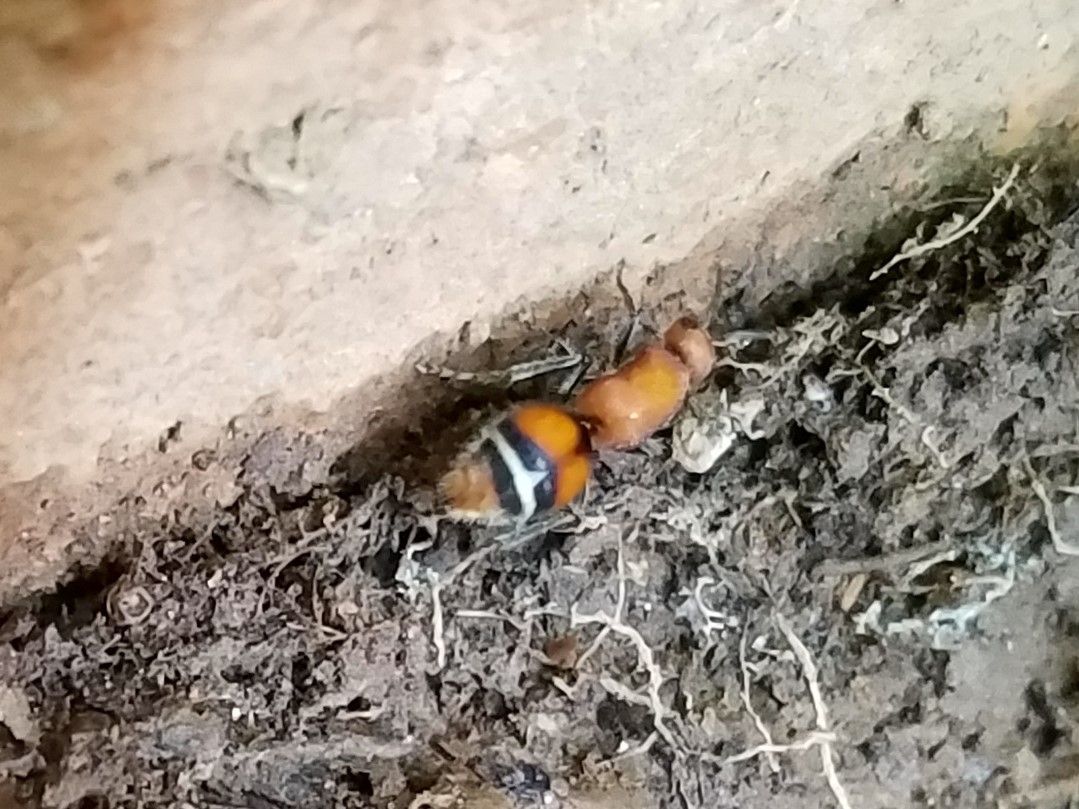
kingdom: Animalia
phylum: Arthropoda
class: Insecta
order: Hymenoptera
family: Mutillidae
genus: Timulla
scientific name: Timulla
